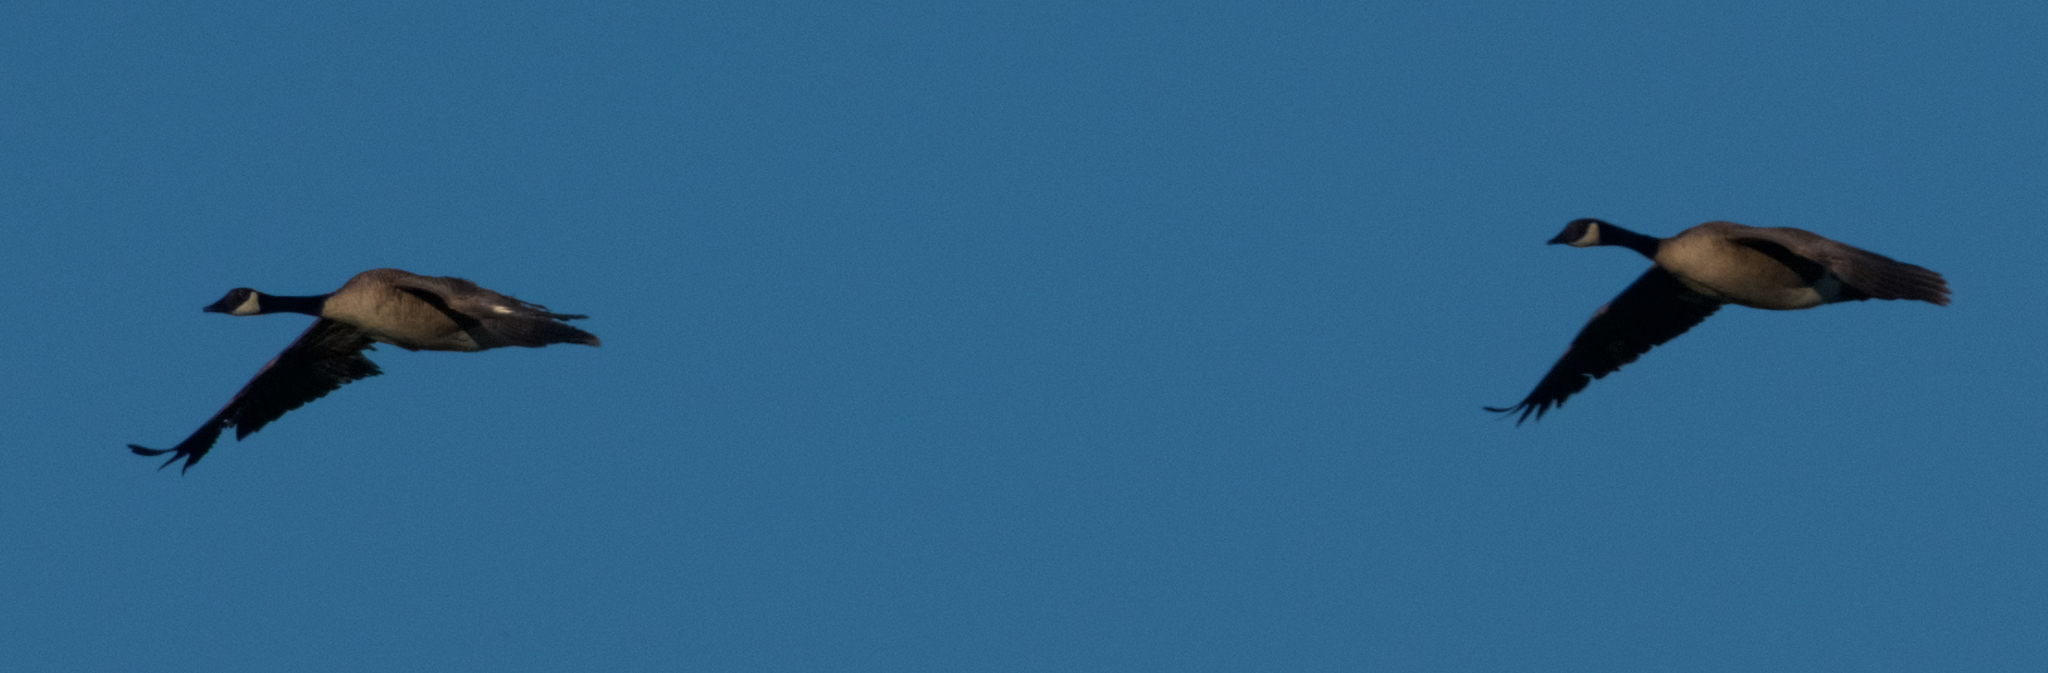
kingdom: Animalia
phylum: Chordata
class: Aves
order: Anseriformes
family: Anatidae
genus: Branta
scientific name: Branta canadensis
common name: Canada goose
